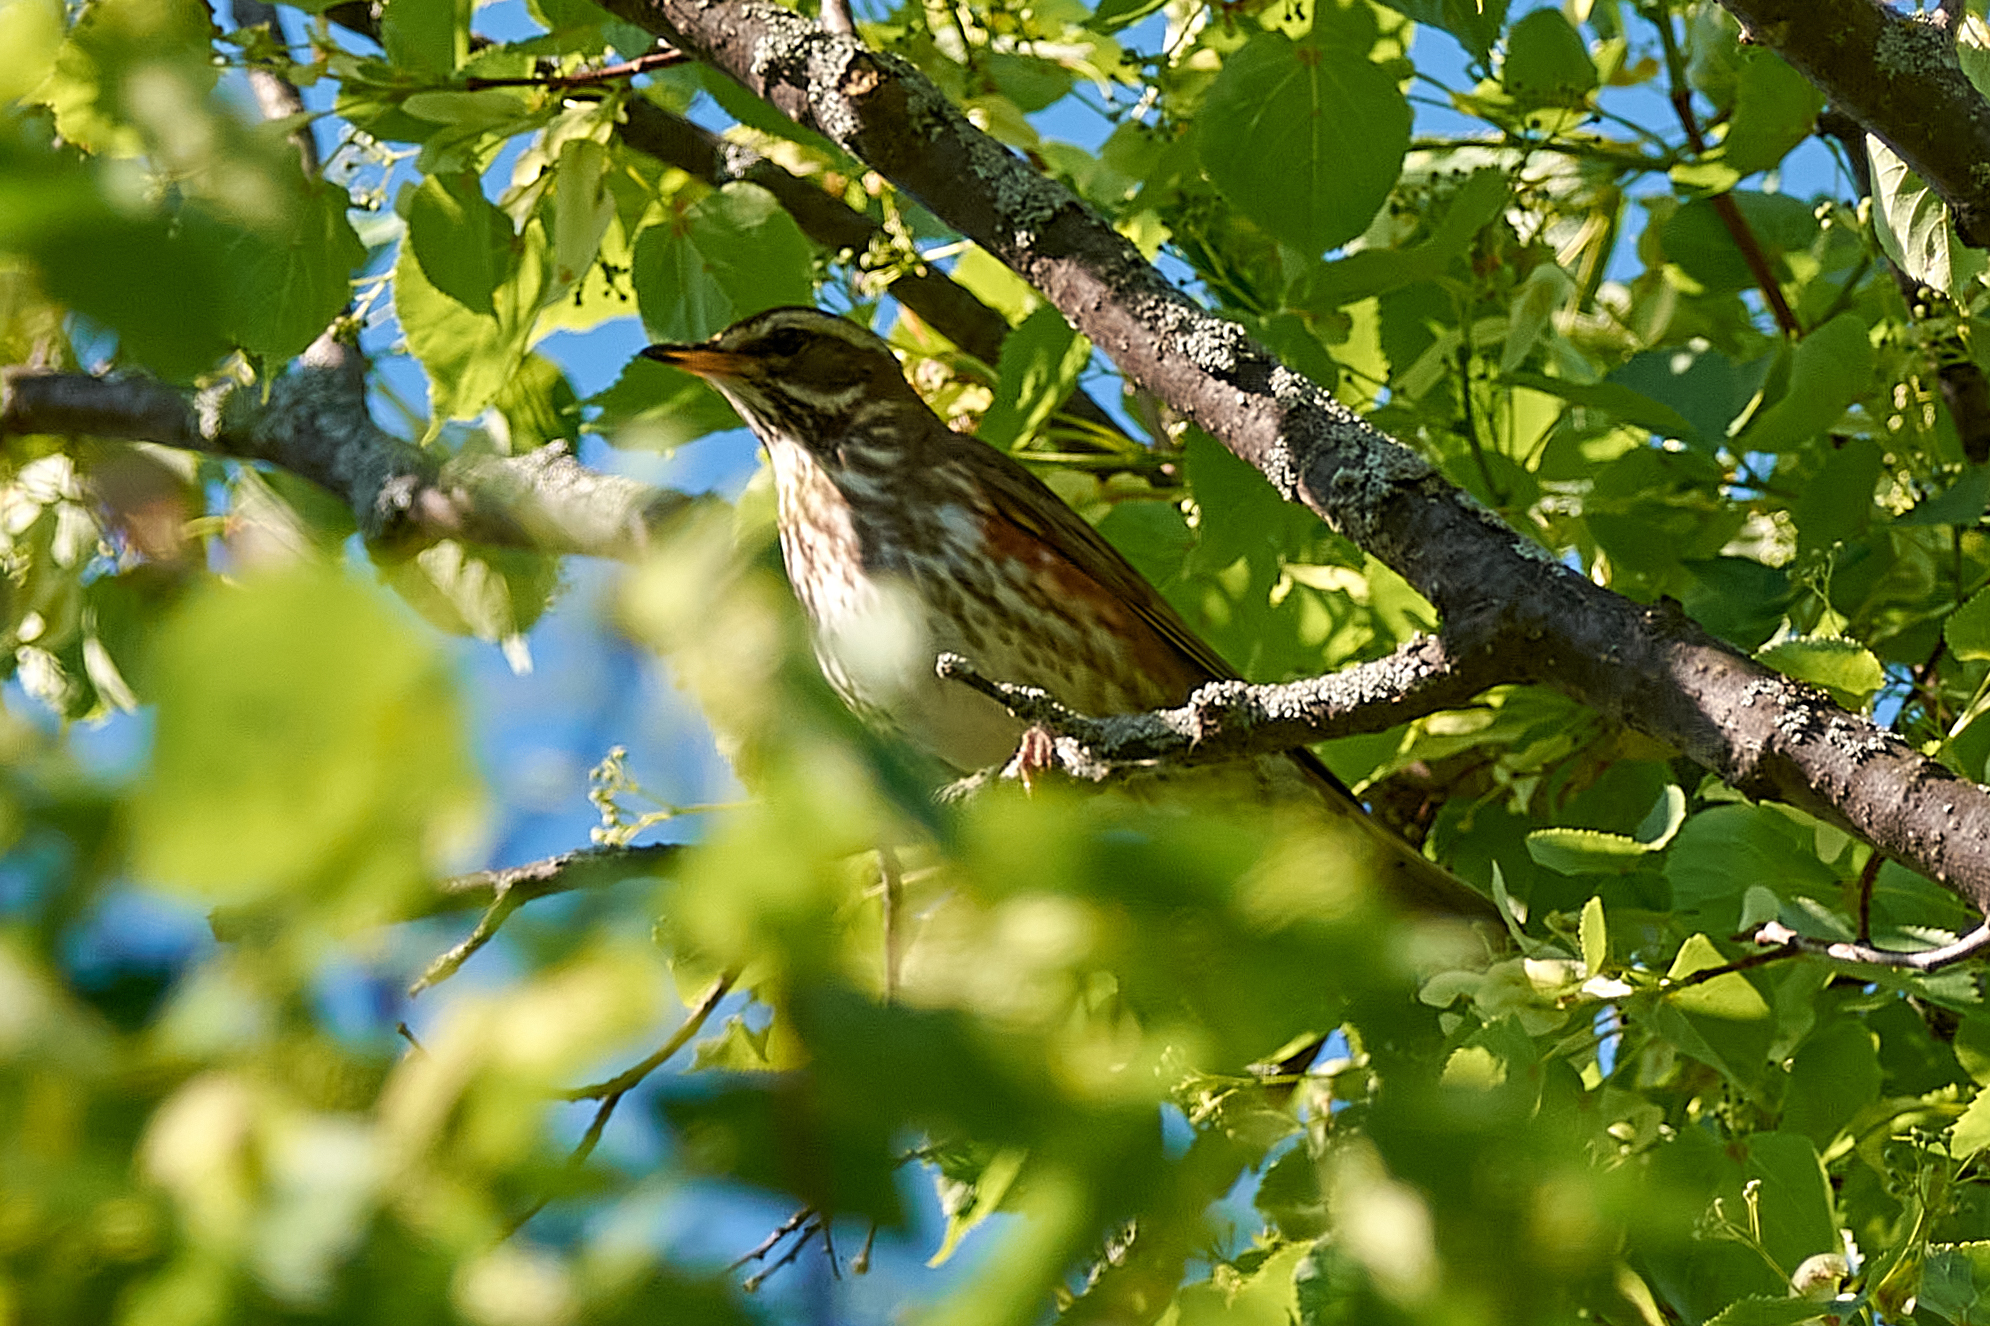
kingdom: Animalia
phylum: Chordata
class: Aves
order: Passeriformes
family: Turdidae
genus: Turdus
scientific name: Turdus iliacus
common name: Redwing
